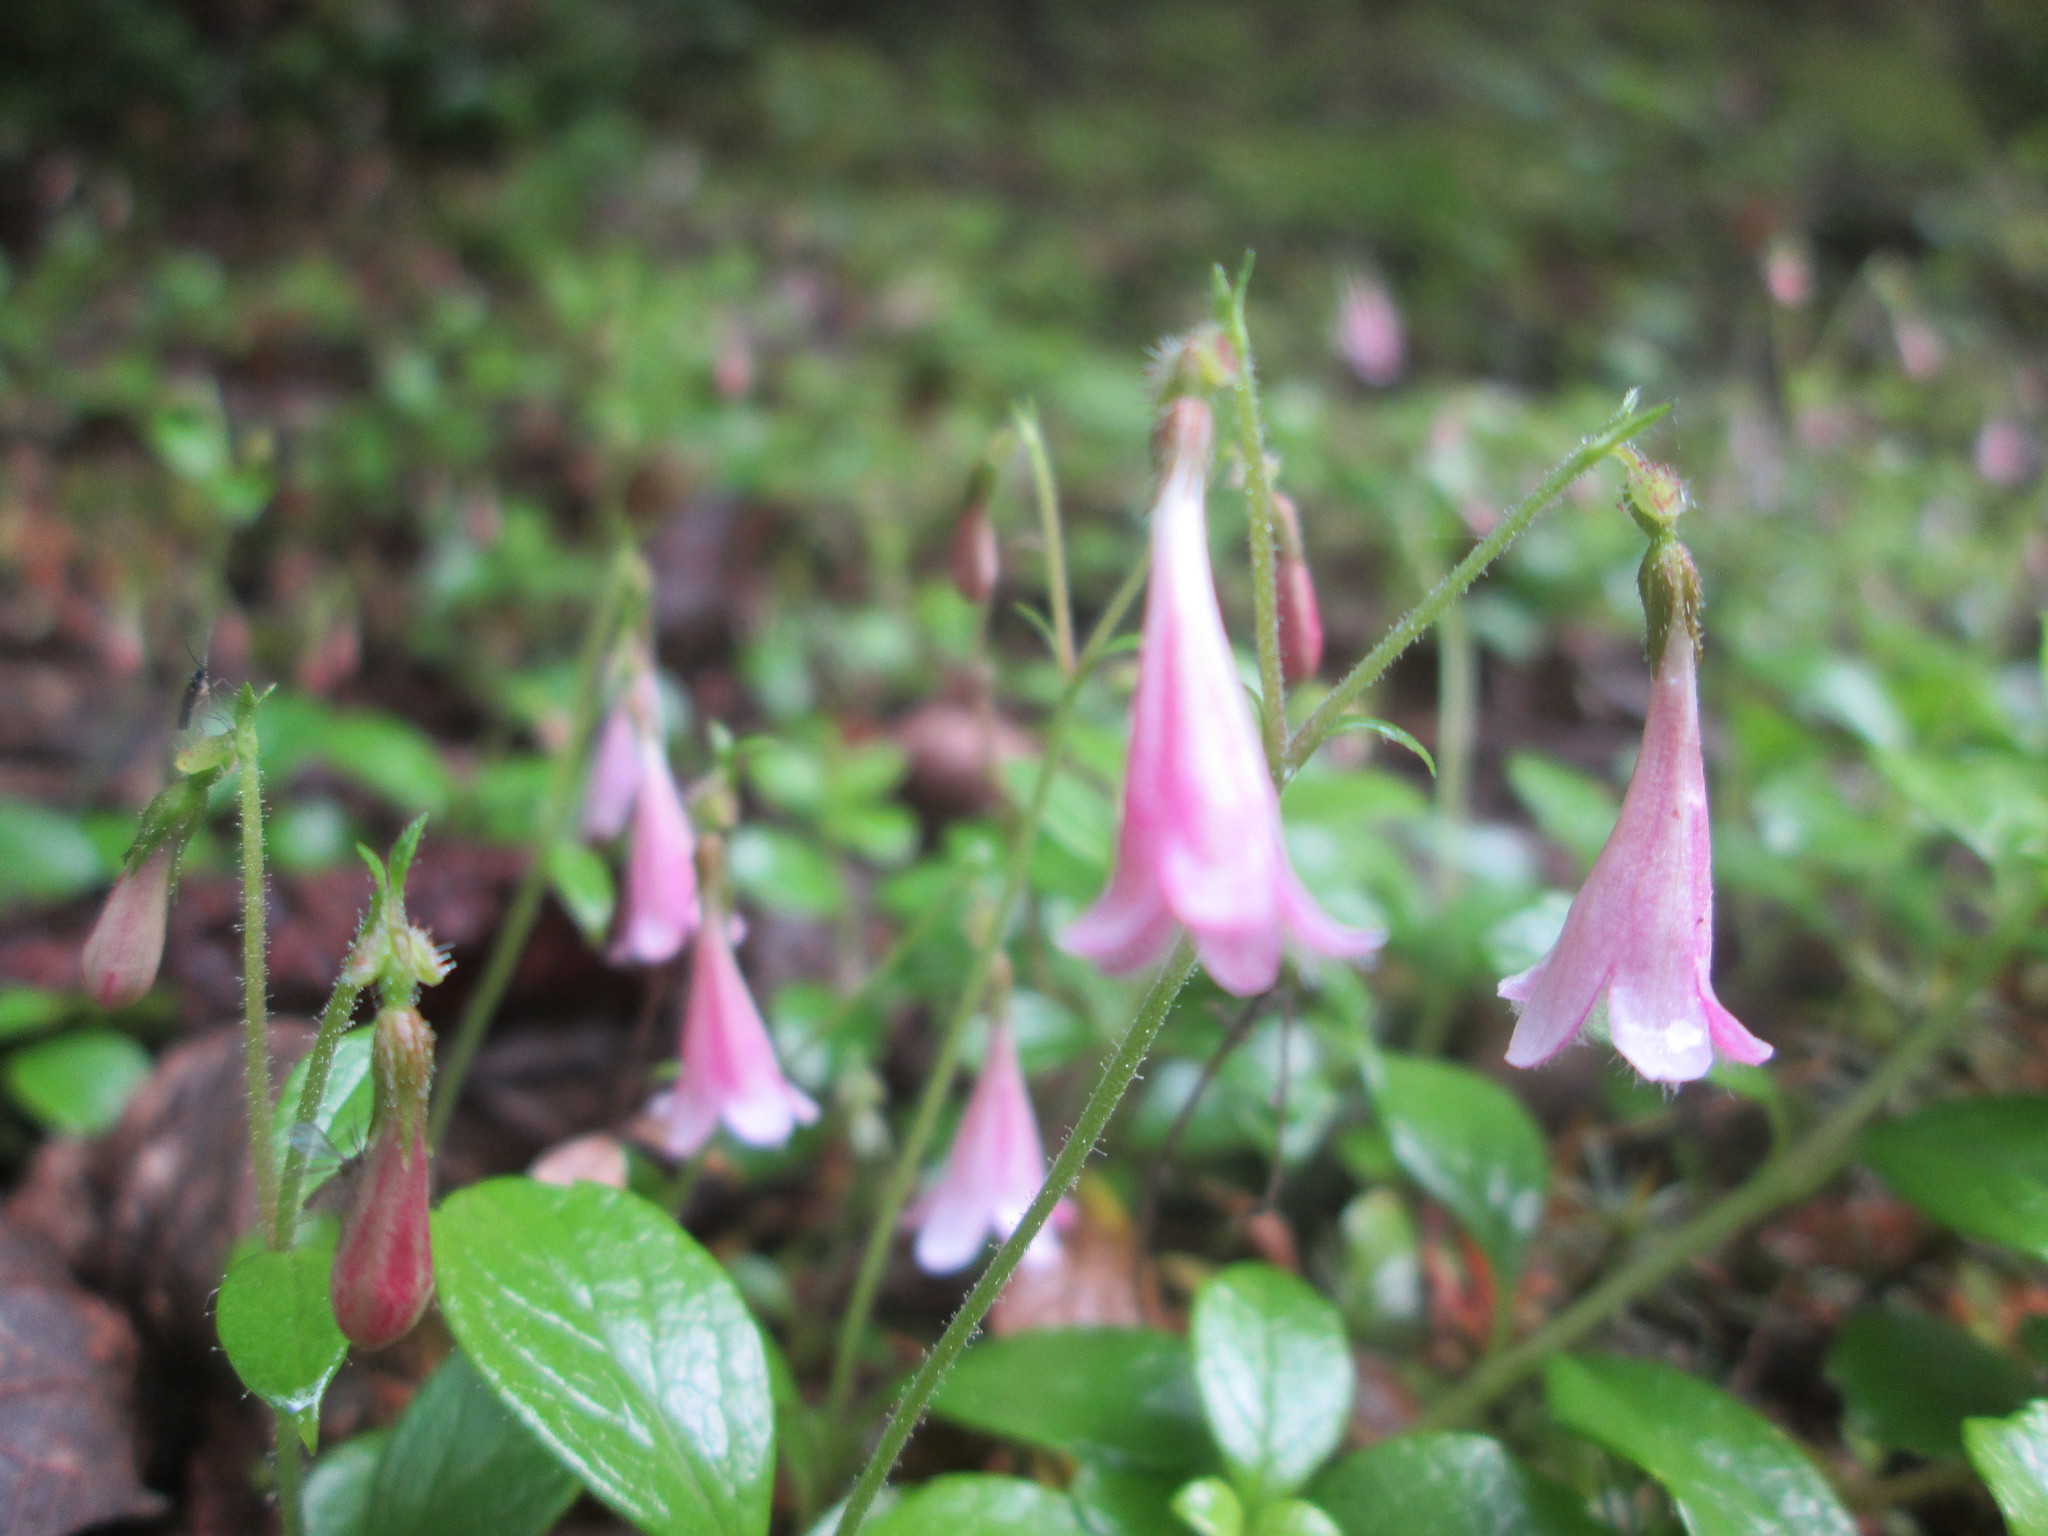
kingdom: Plantae
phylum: Tracheophyta
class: Magnoliopsida
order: Dipsacales
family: Caprifoliaceae
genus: Linnaea
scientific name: Linnaea borealis
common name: Twinflower
